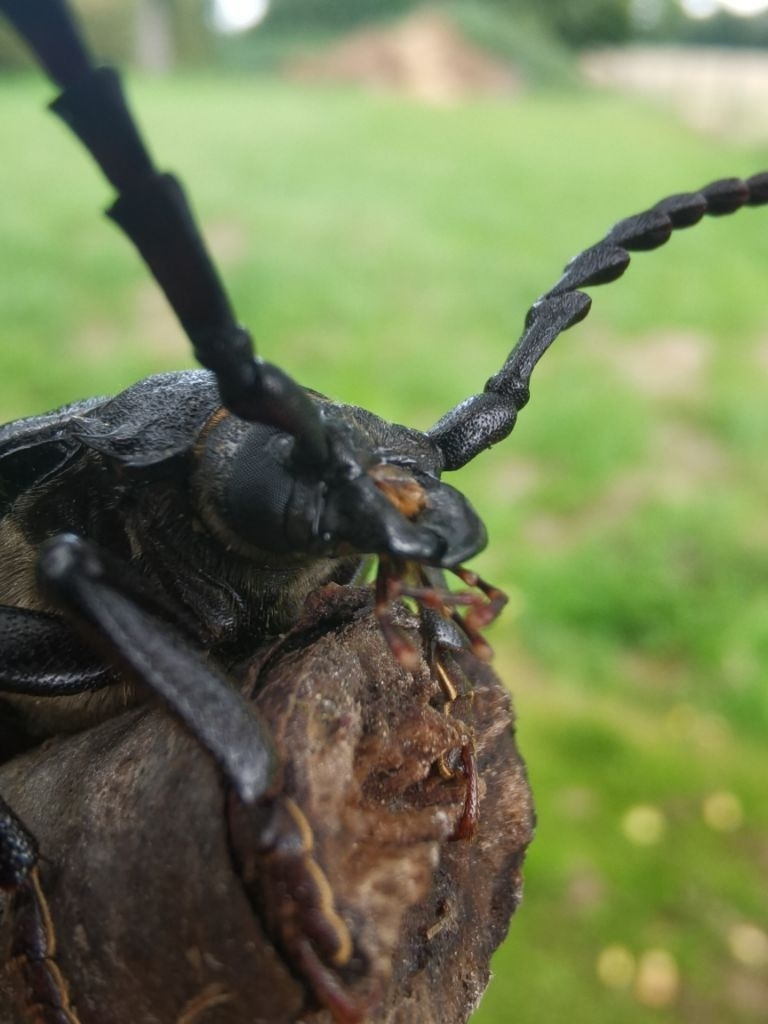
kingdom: Animalia
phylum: Arthropoda
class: Insecta
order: Coleoptera
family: Cerambycidae
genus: Prionus
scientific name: Prionus coriarius
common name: Tanner beetle
